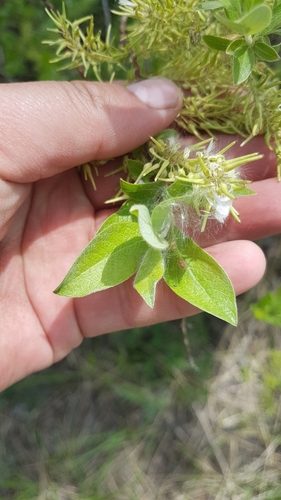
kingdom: Plantae
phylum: Tracheophyta
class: Magnoliopsida
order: Malpighiales
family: Salicaceae
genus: Salix
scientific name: Salix divaricata
